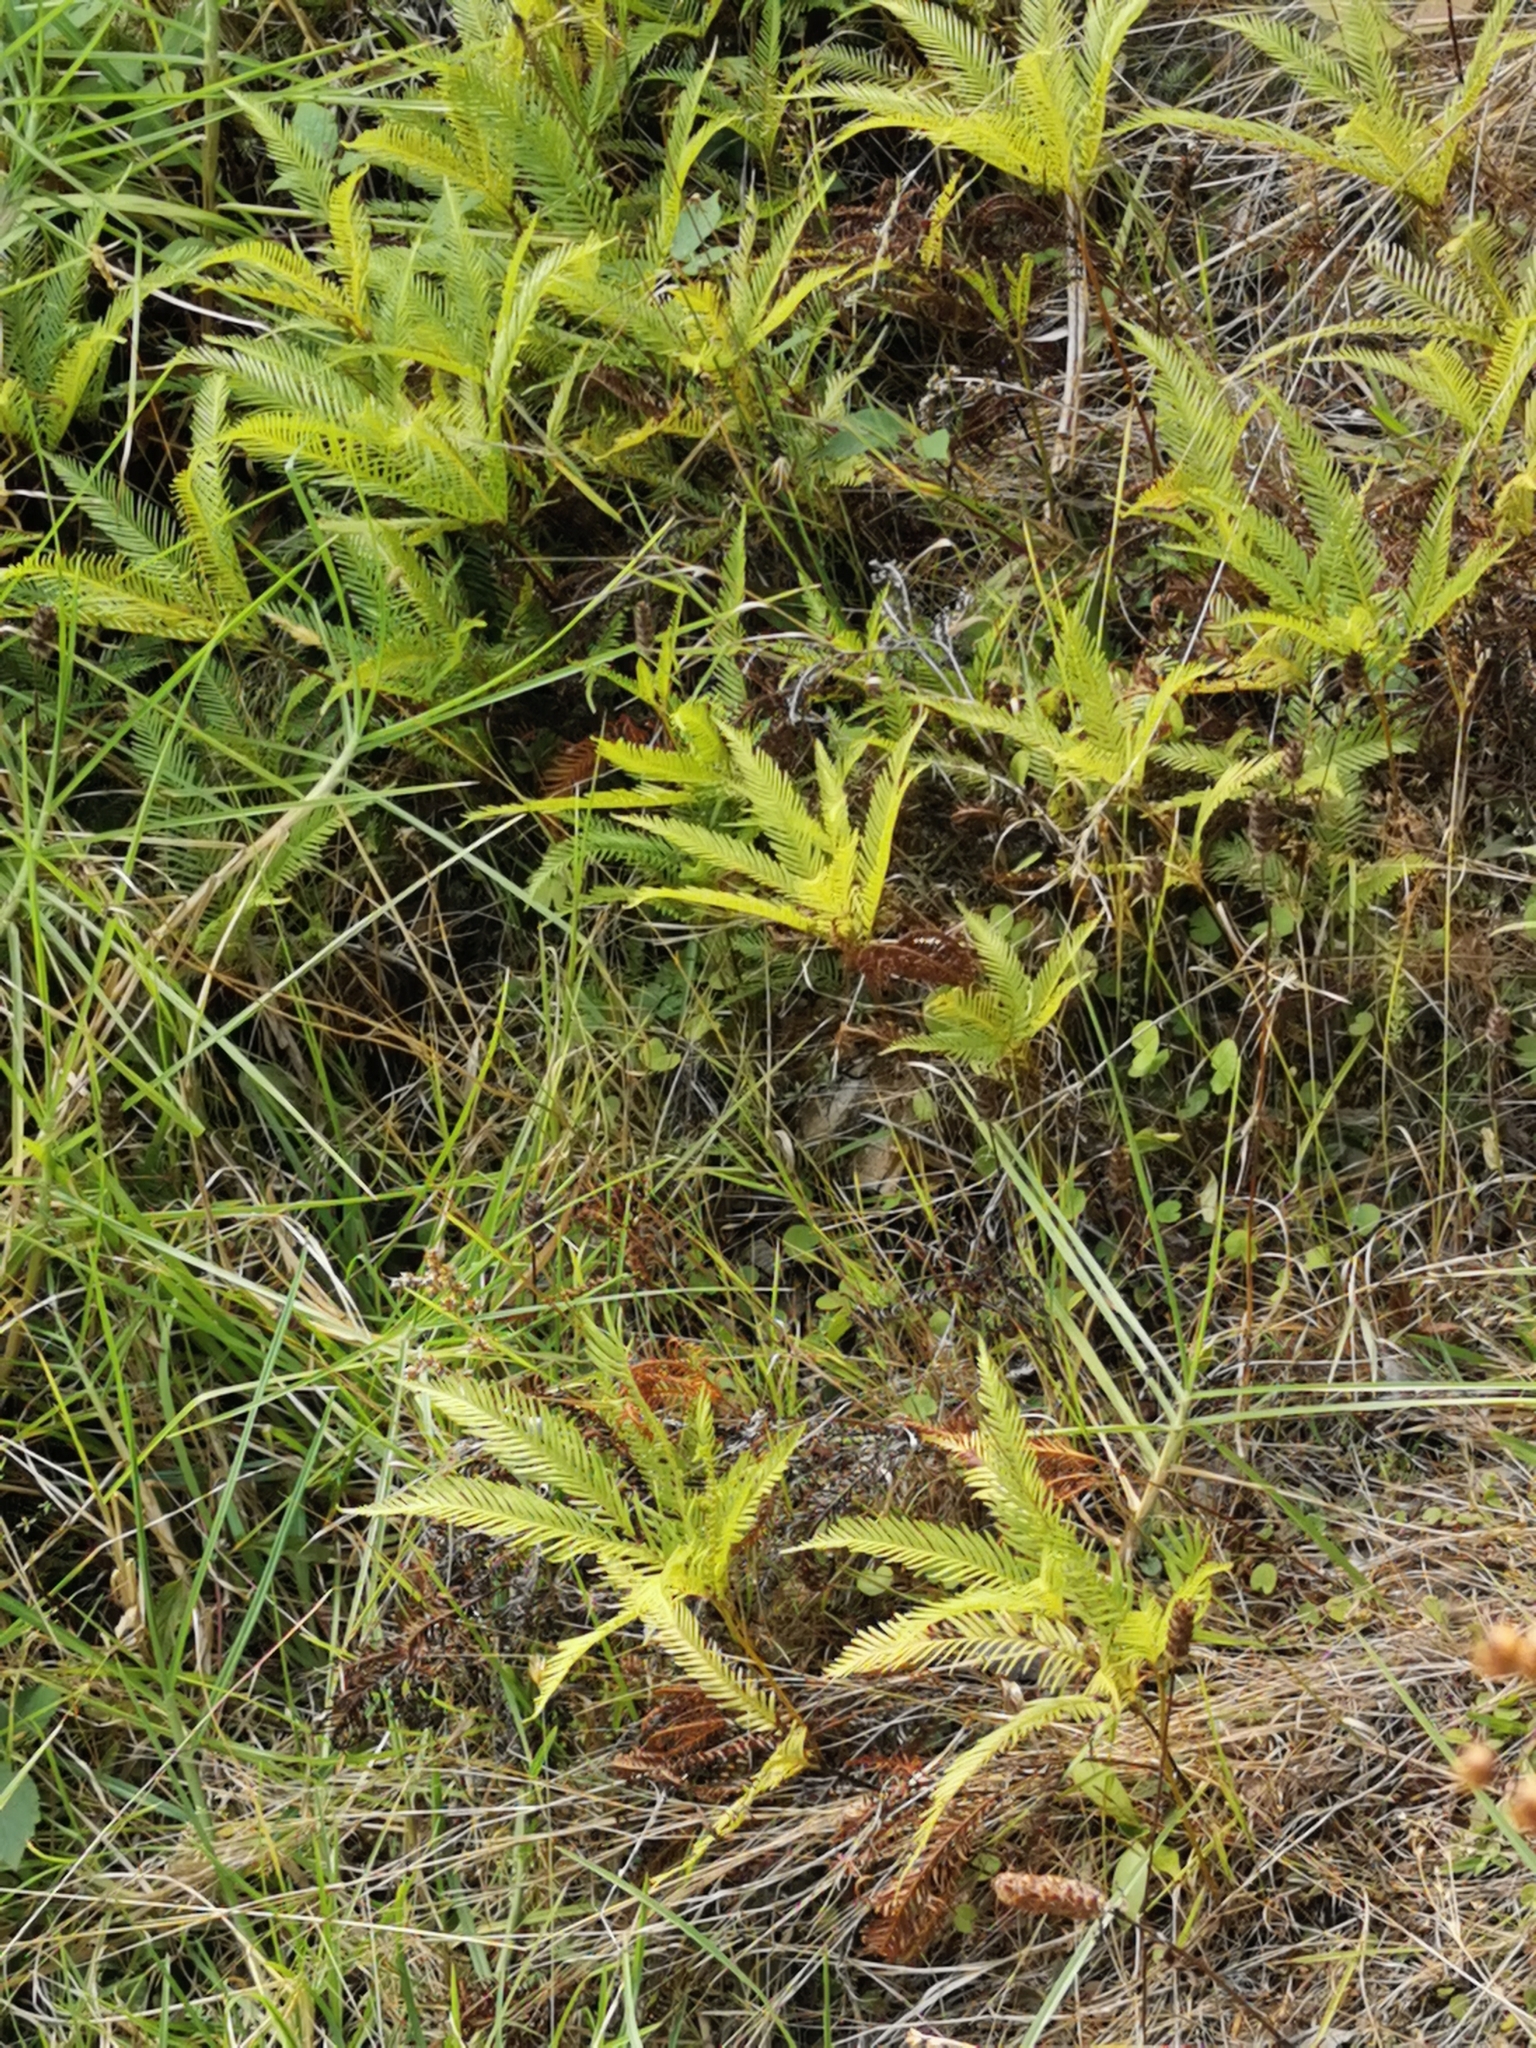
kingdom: Plantae
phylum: Tracheophyta
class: Polypodiopsida
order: Gleicheniales
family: Gleicheniaceae
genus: Sticherus
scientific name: Sticherus flabellatus
